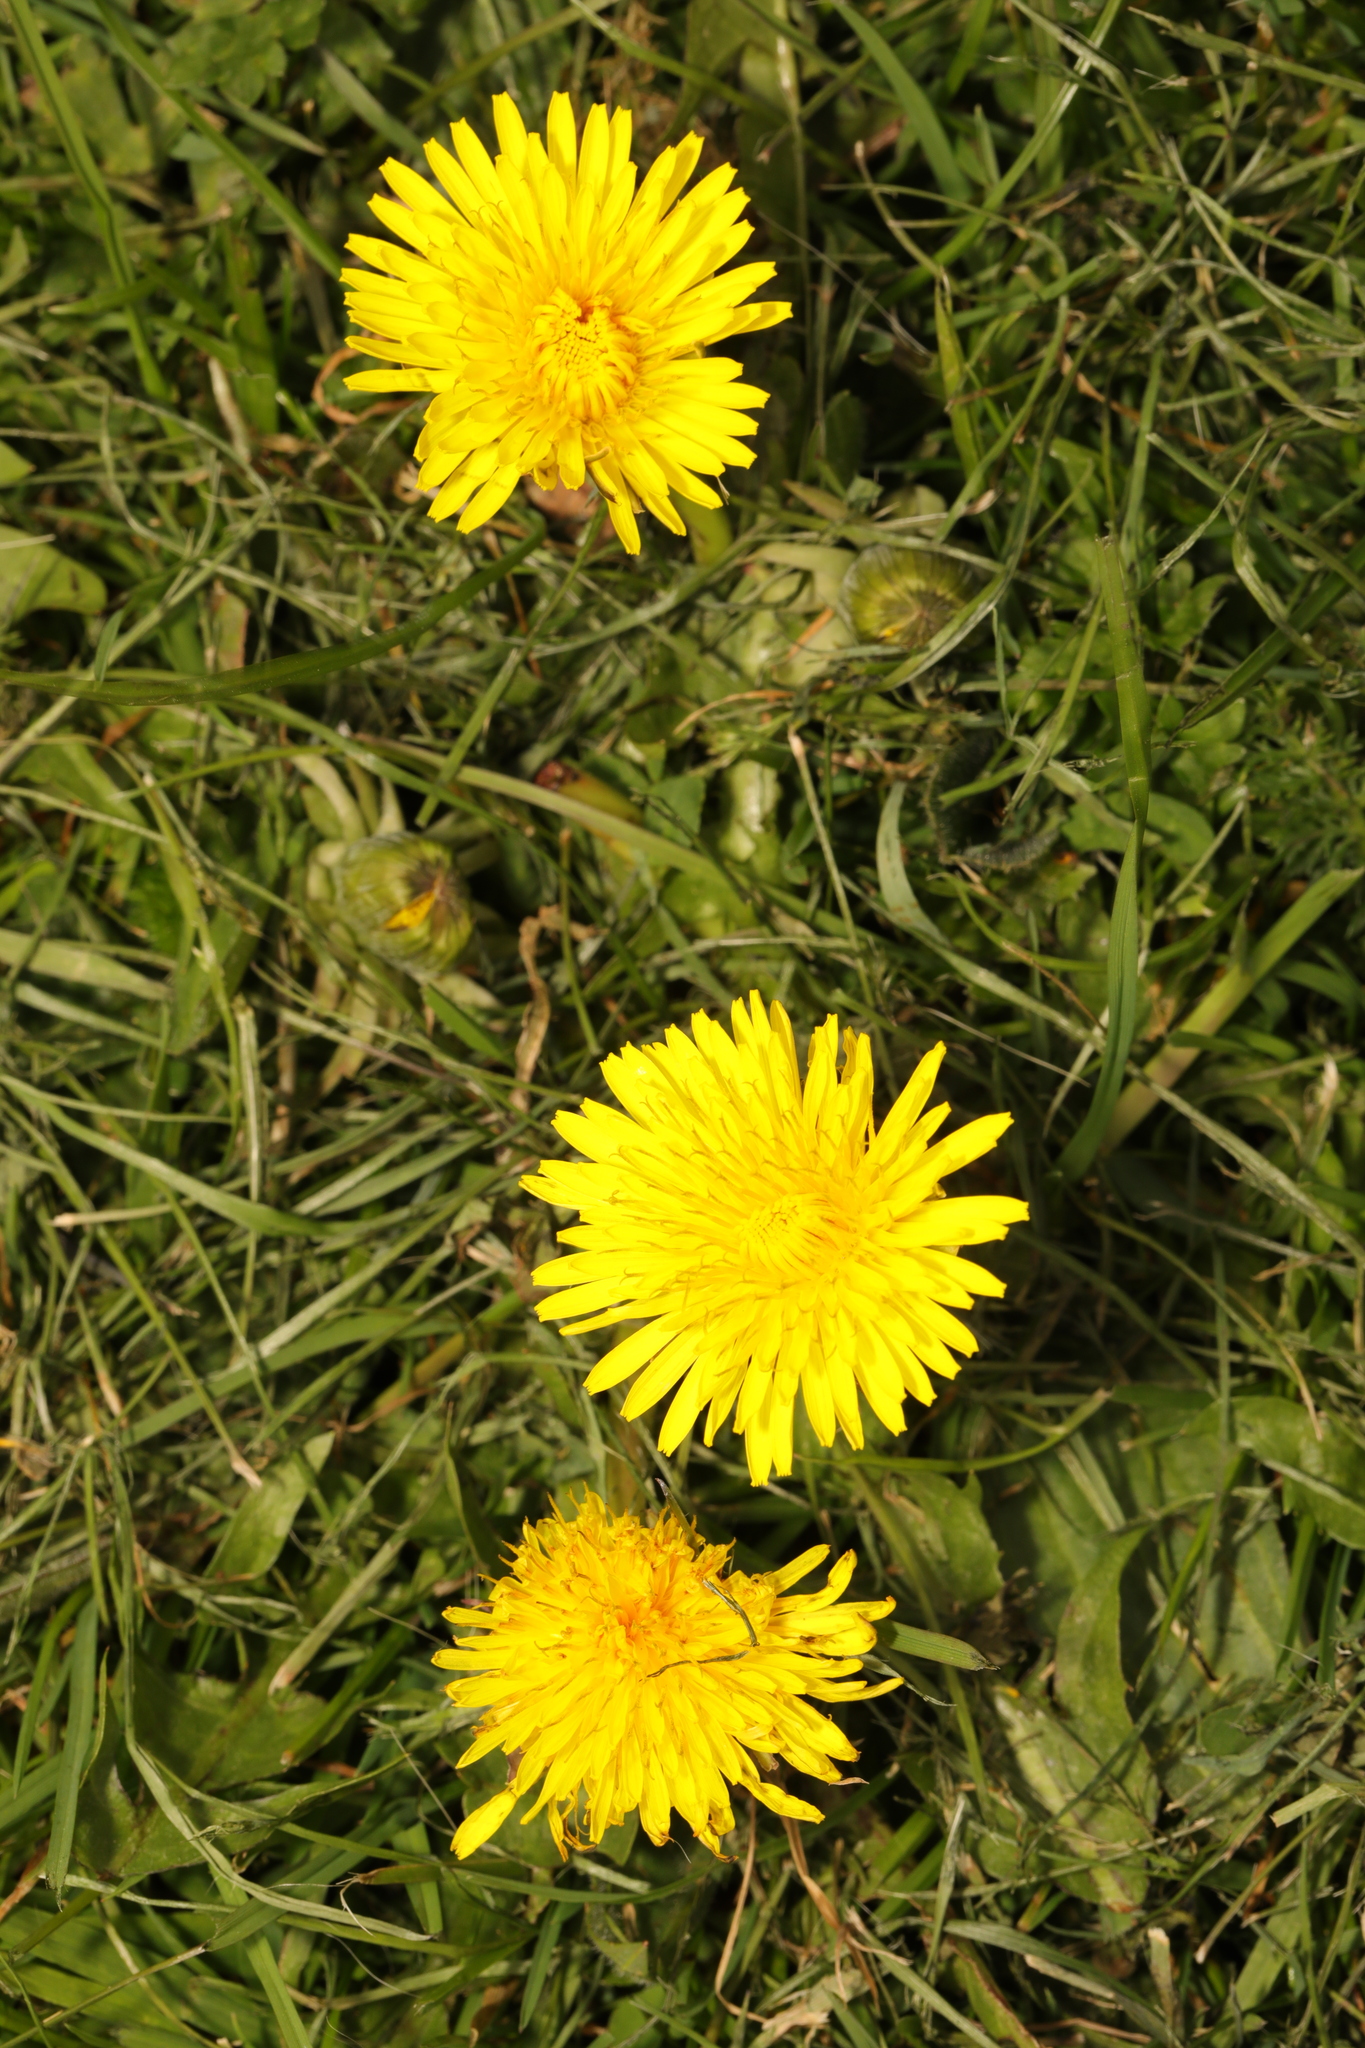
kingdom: Plantae
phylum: Tracheophyta
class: Magnoliopsida
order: Asterales
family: Asteraceae
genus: Taraxacum
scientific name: Taraxacum officinale
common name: Common dandelion
